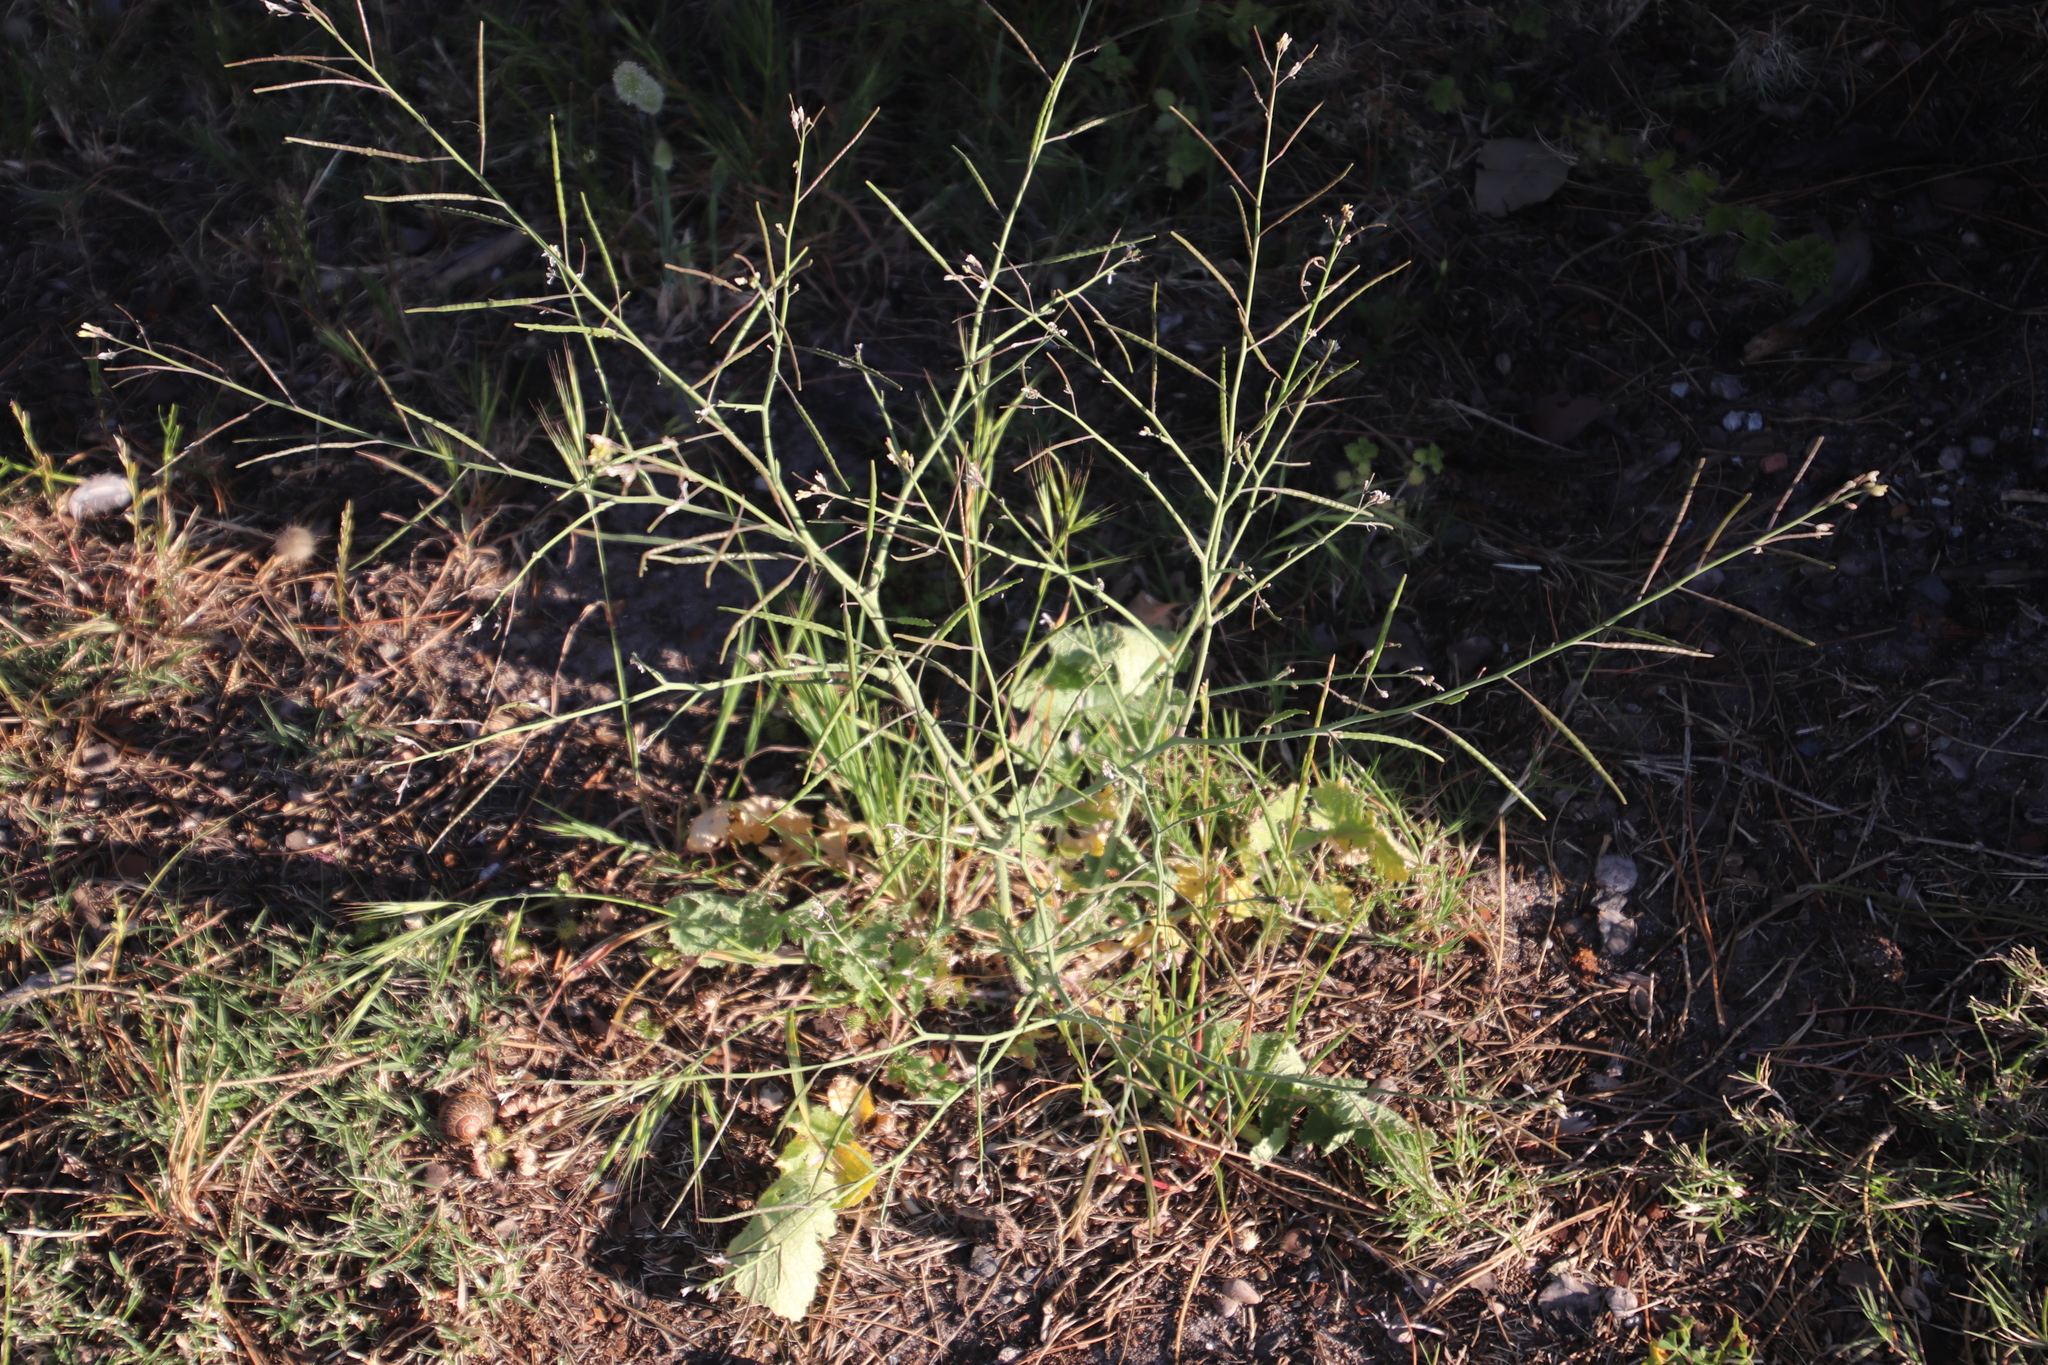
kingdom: Plantae
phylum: Tracheophyta
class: Magnoliopsida
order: Brassicales
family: Brassicaceae
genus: Brassica
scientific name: Brassica tournefortii
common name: Pale cabbage
